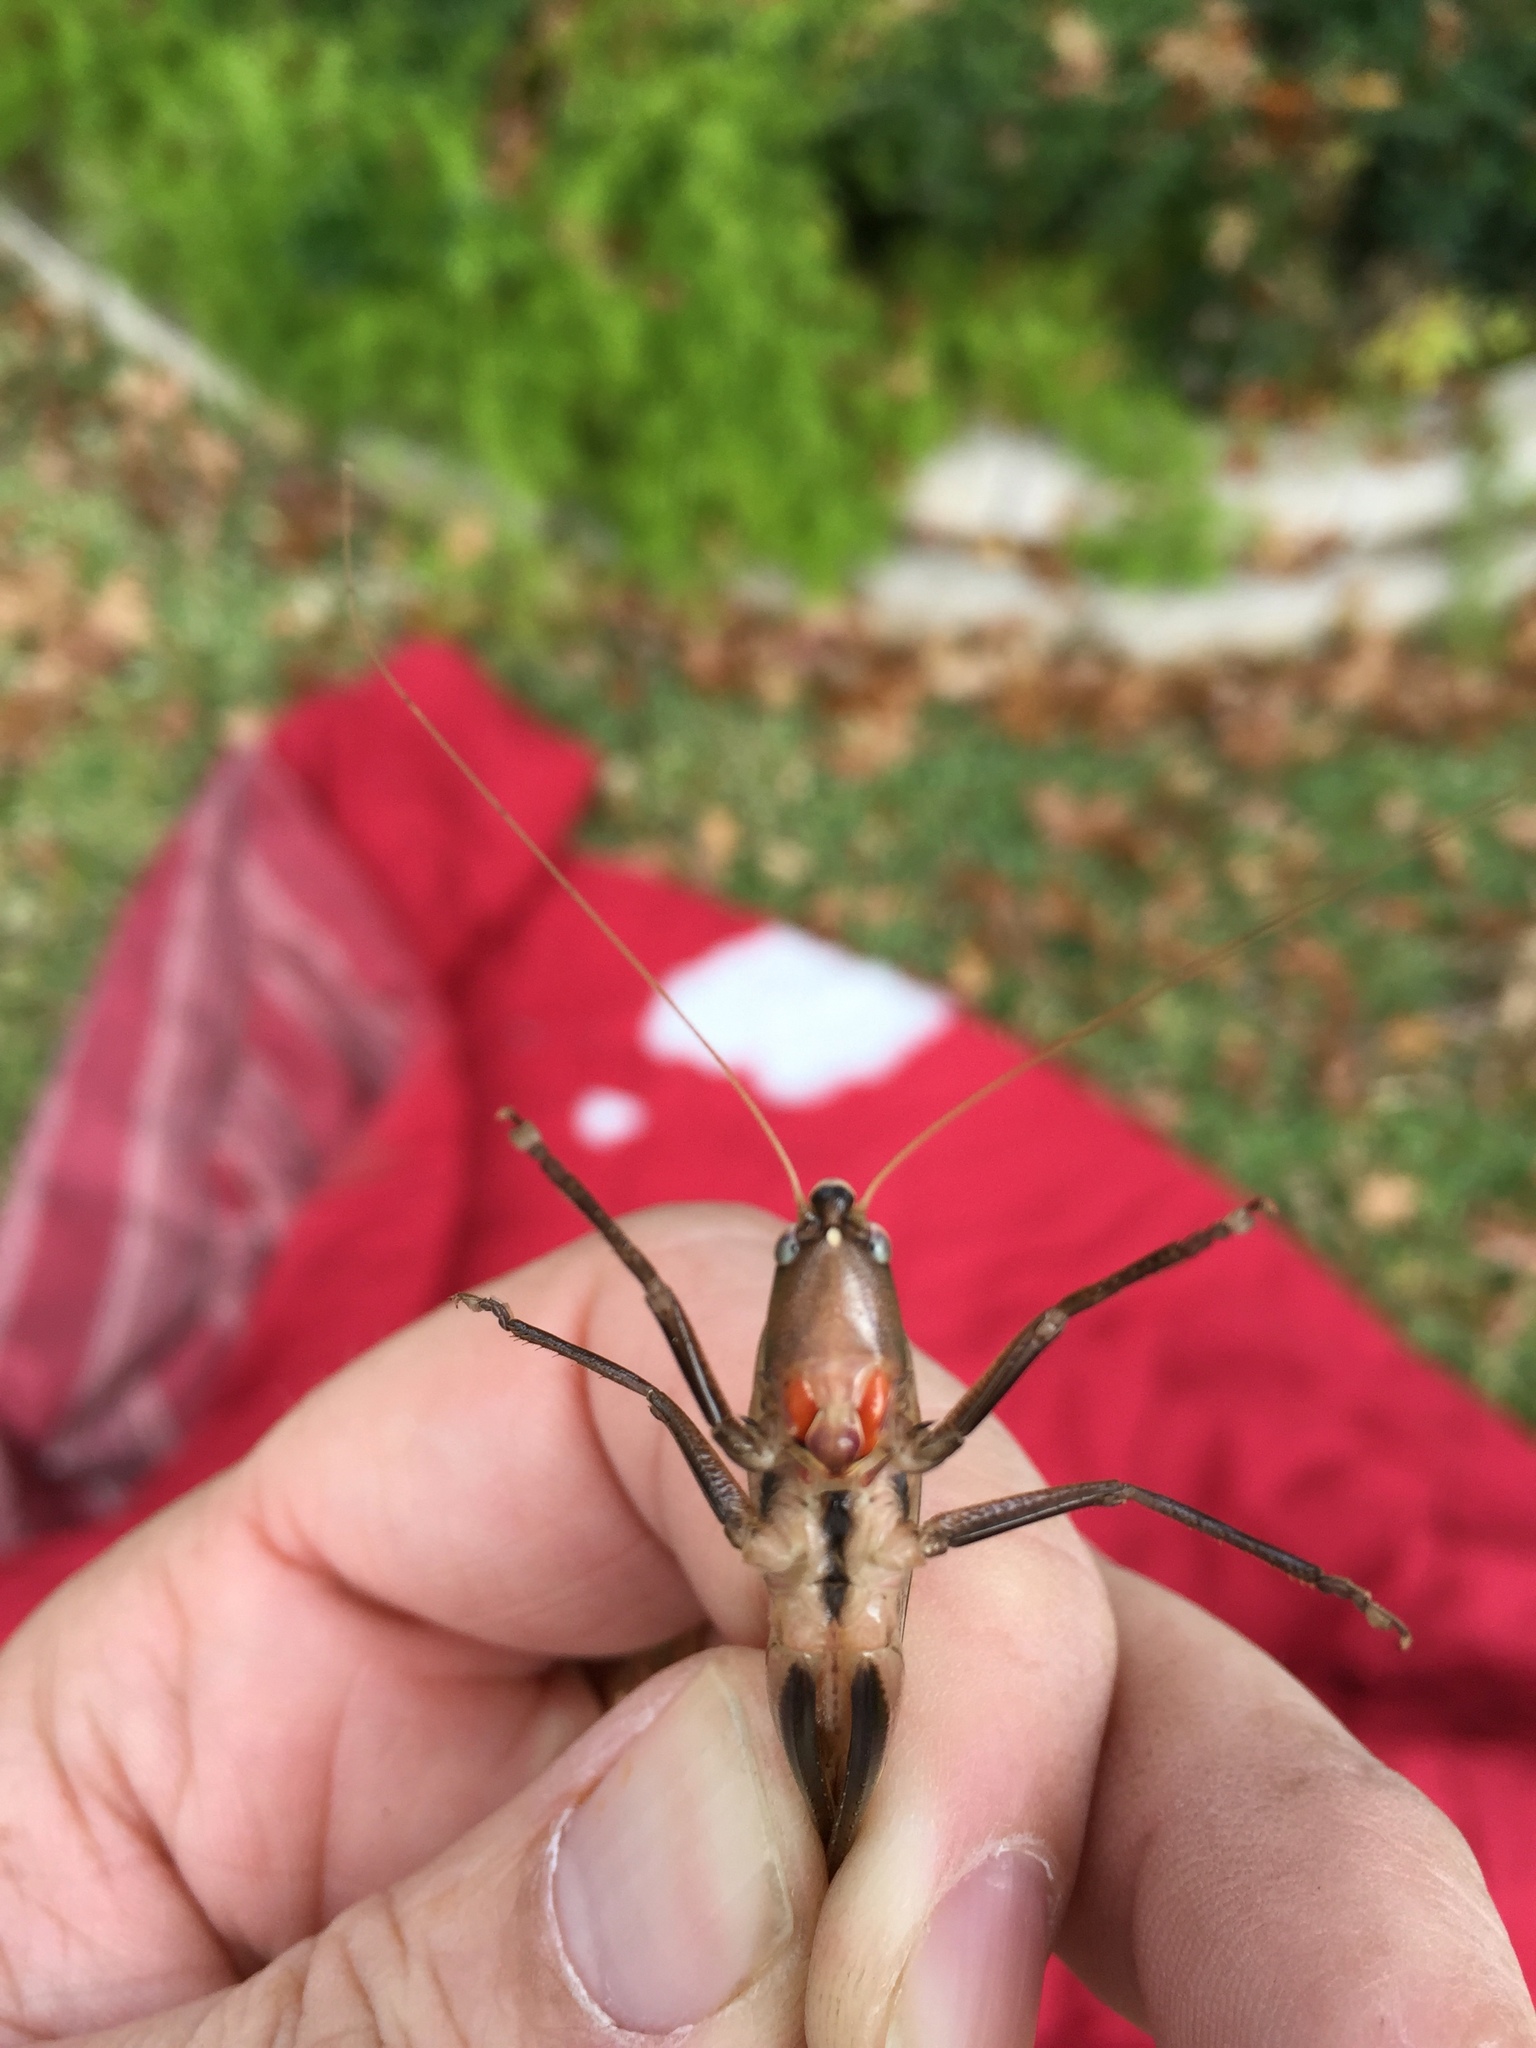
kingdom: Animalia
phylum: Arthropoda
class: Insecta
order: Orthoptera
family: Tettigoniidae
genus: Neoconocephalus
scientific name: Neoconocephalus triops
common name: Broad-tipped conehead
